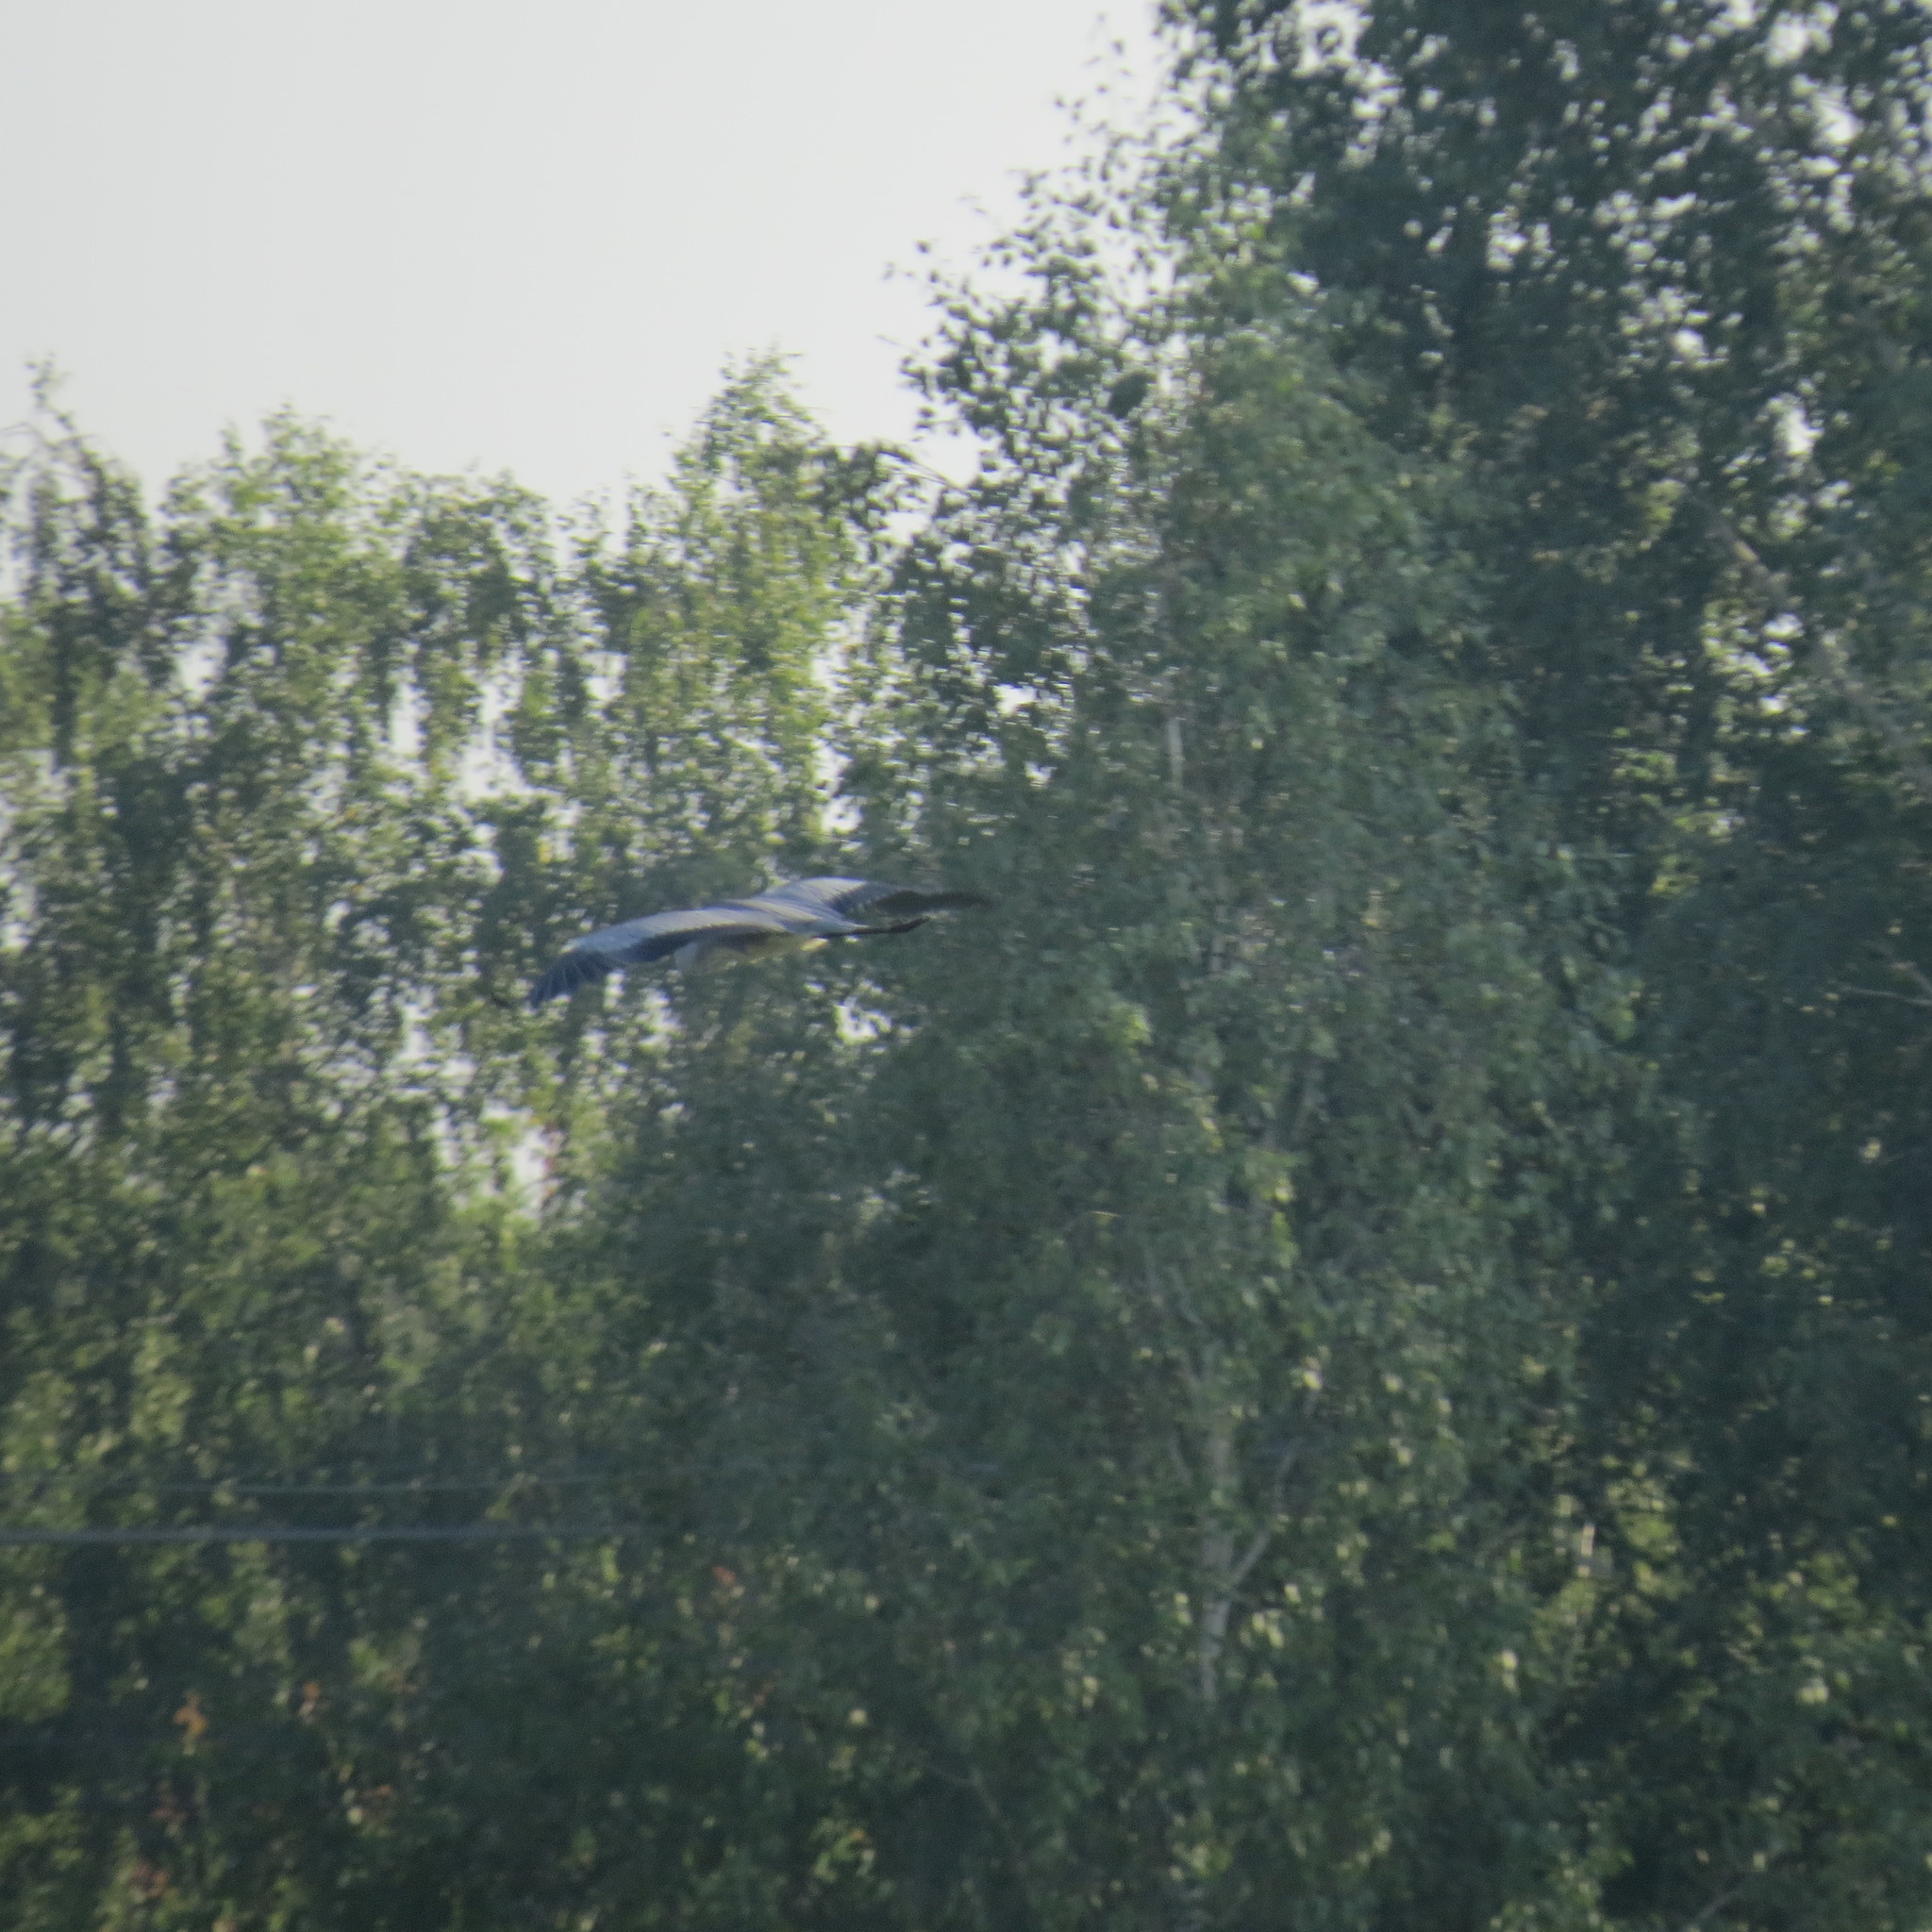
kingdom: Animalia
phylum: Chordata
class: Aves
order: Pelecaniformes
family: Ardeidae
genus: Ardea
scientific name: Ardea cinerea
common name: Grey heron
